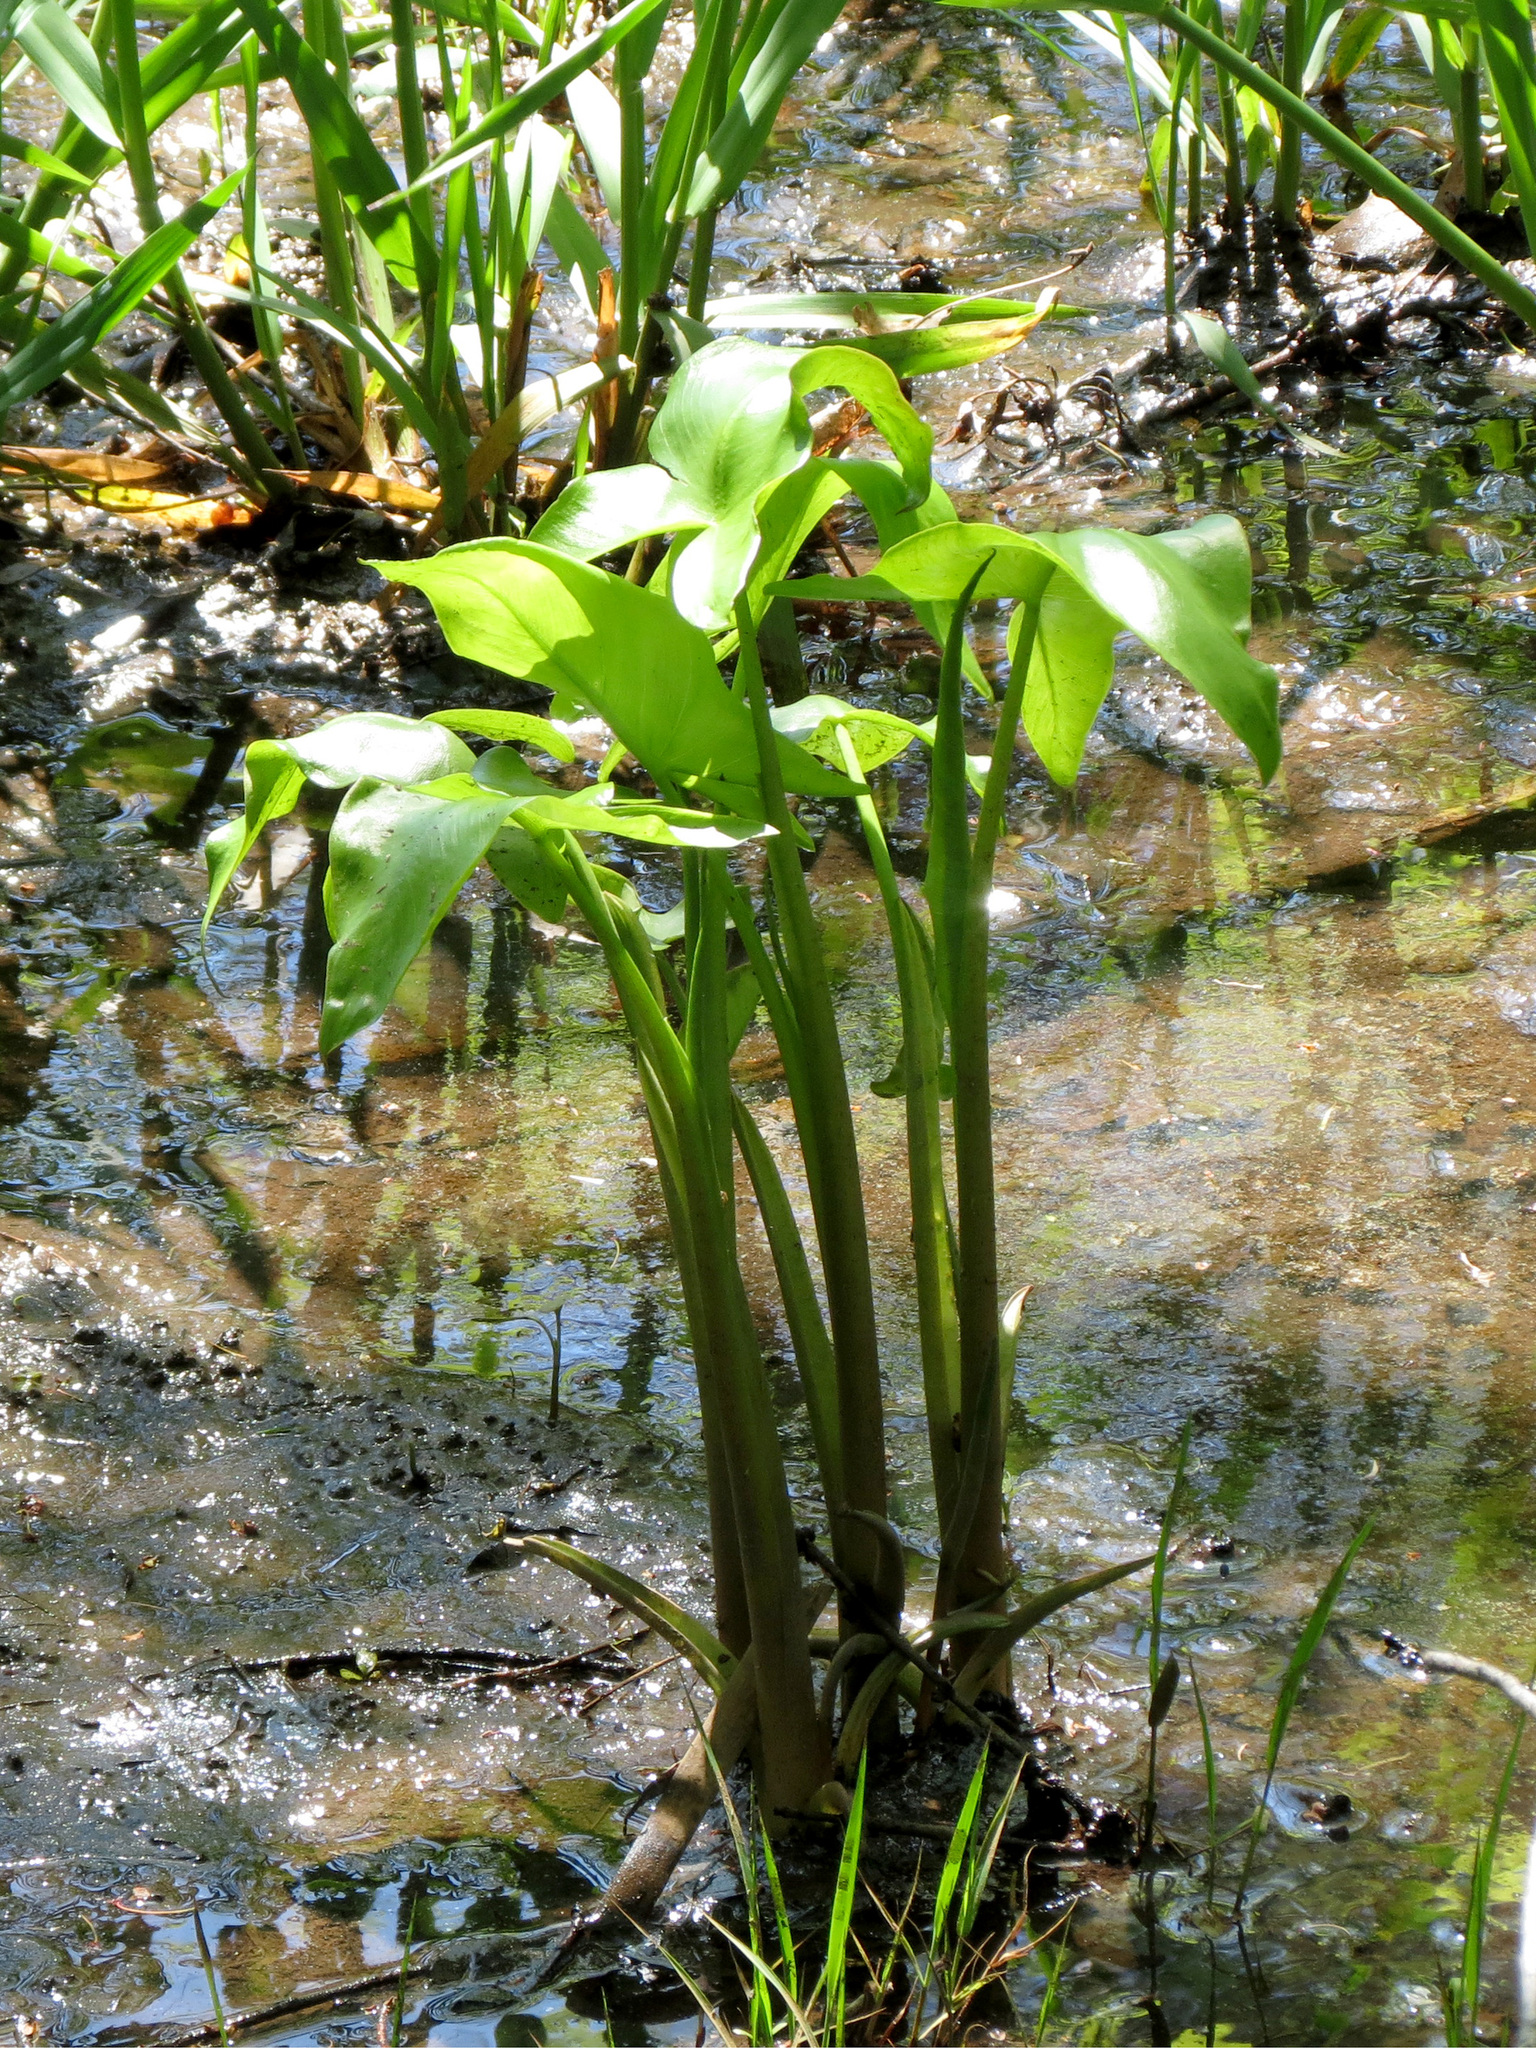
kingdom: Plantae
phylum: Tracheophyta
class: Liliopsida
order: Alismatales
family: Araceae
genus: Peltandra
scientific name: Peltandra virginica
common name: Arrow arum
